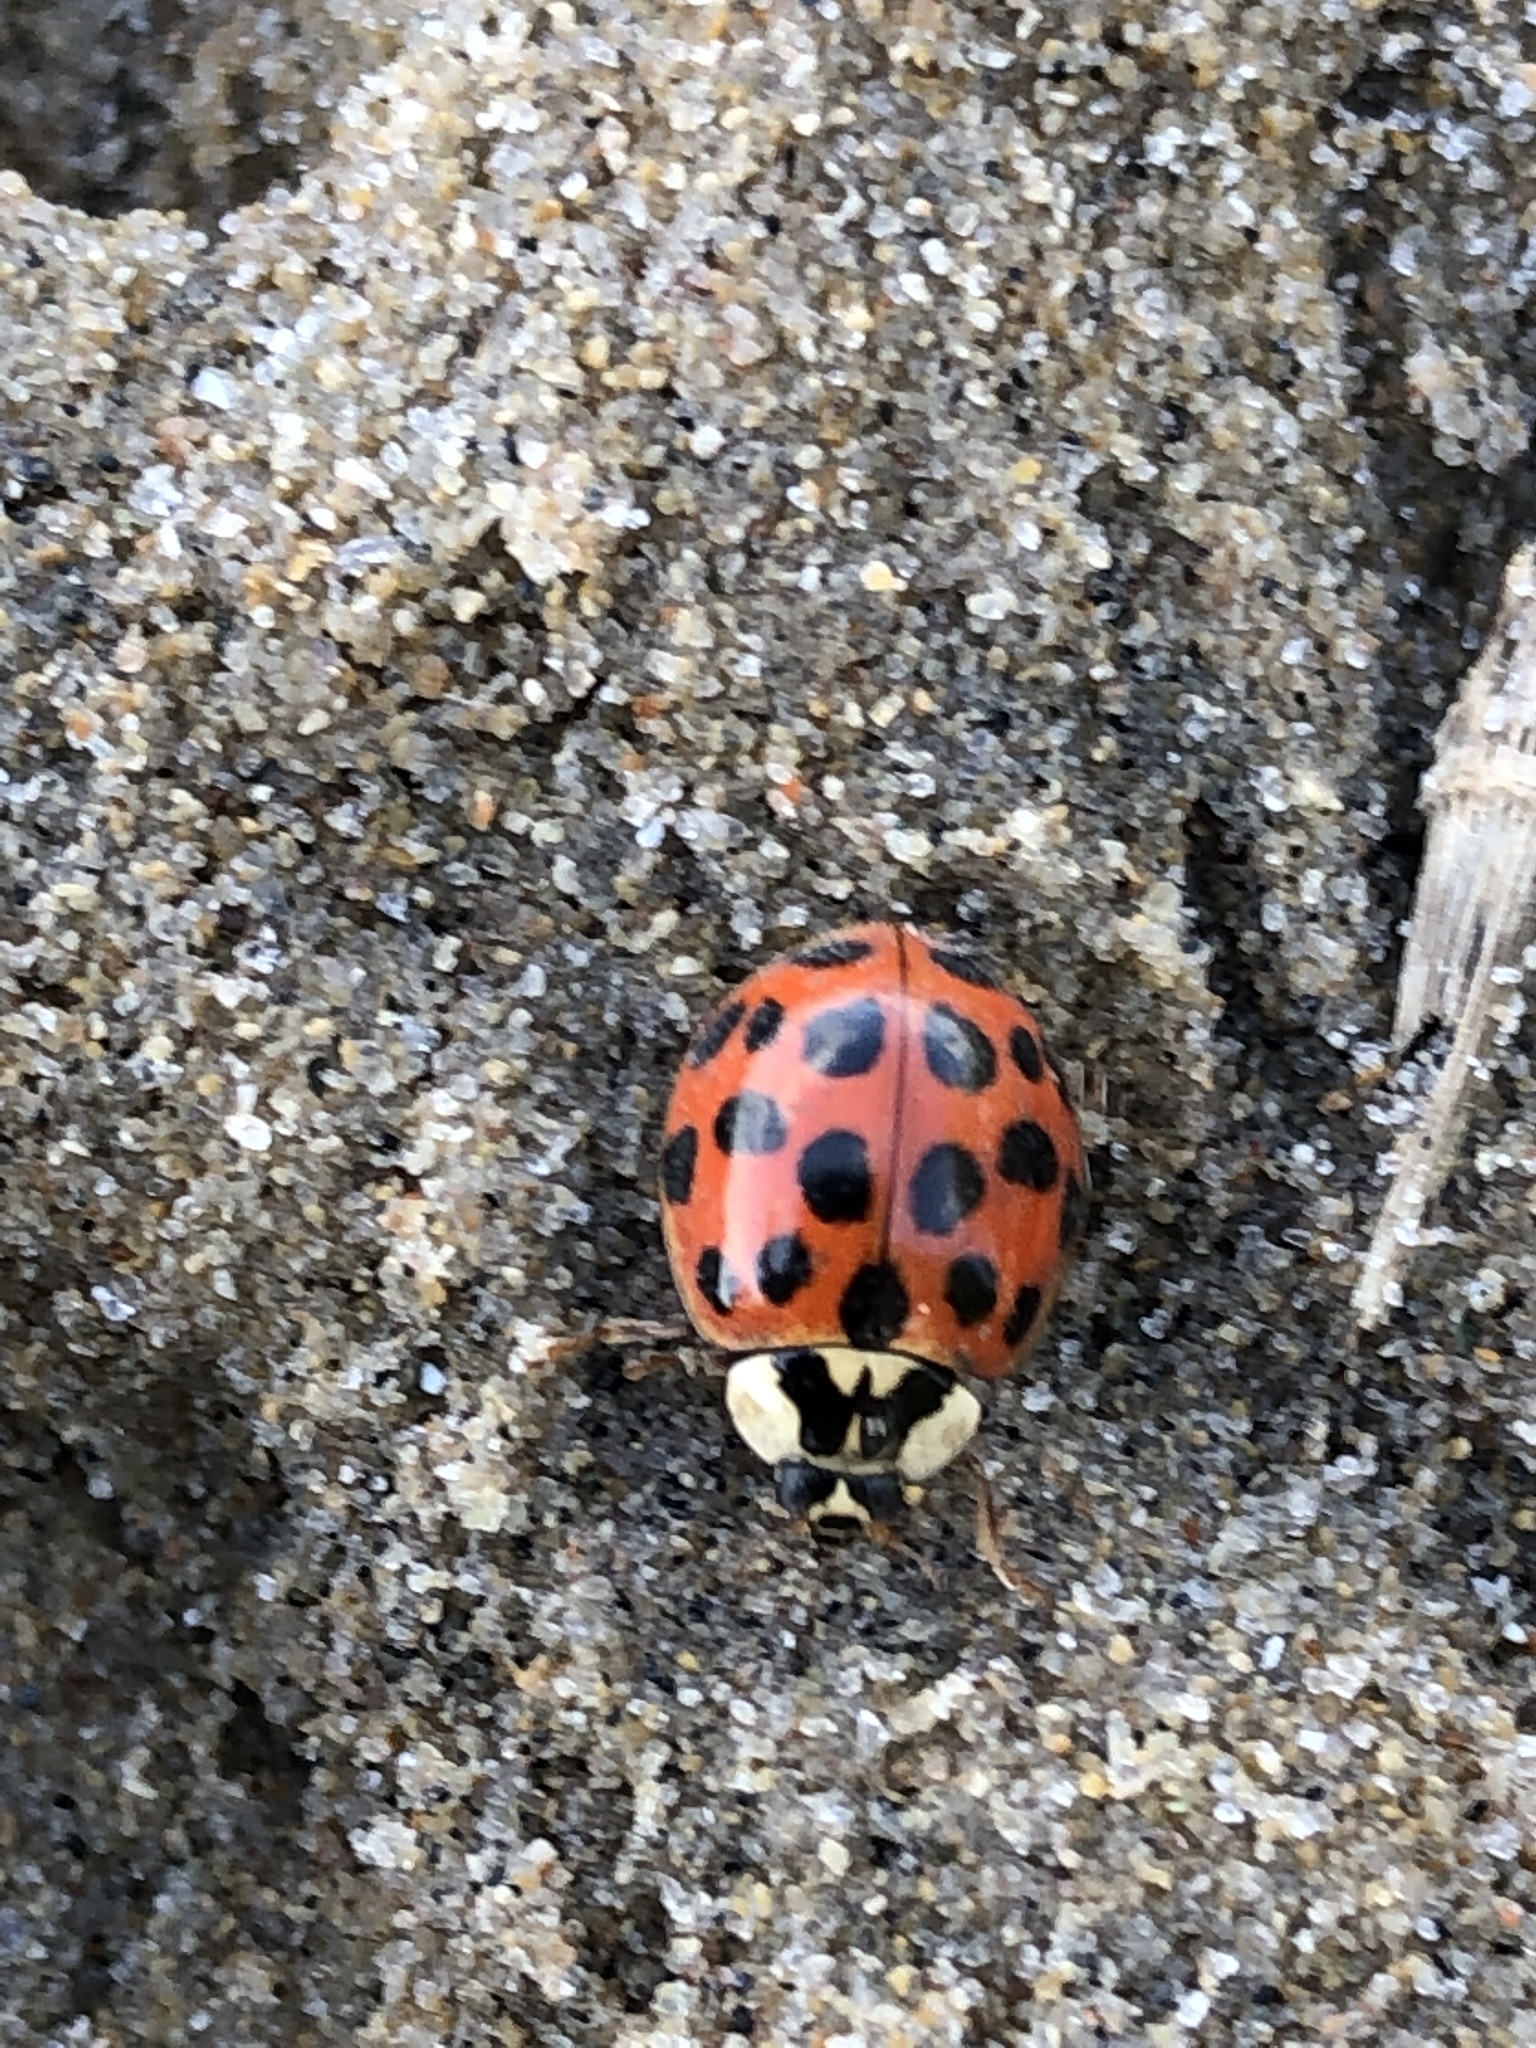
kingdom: Animalia
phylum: Arthropoda
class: Insecta
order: Coleoptera
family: Coccinellidae
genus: Harmonia
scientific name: Harmonia axyridis
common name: Harlequin ladybird
